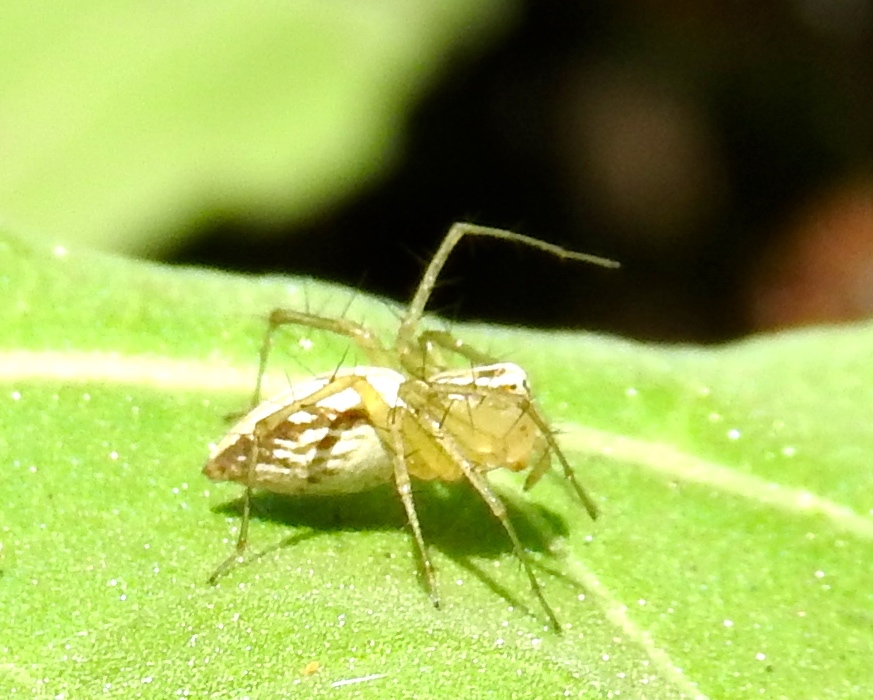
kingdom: Animalia
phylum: Arthropoda
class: Arachnida
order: Araneae
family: Oxyopidae
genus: Oxyopes
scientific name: Oxyopes
